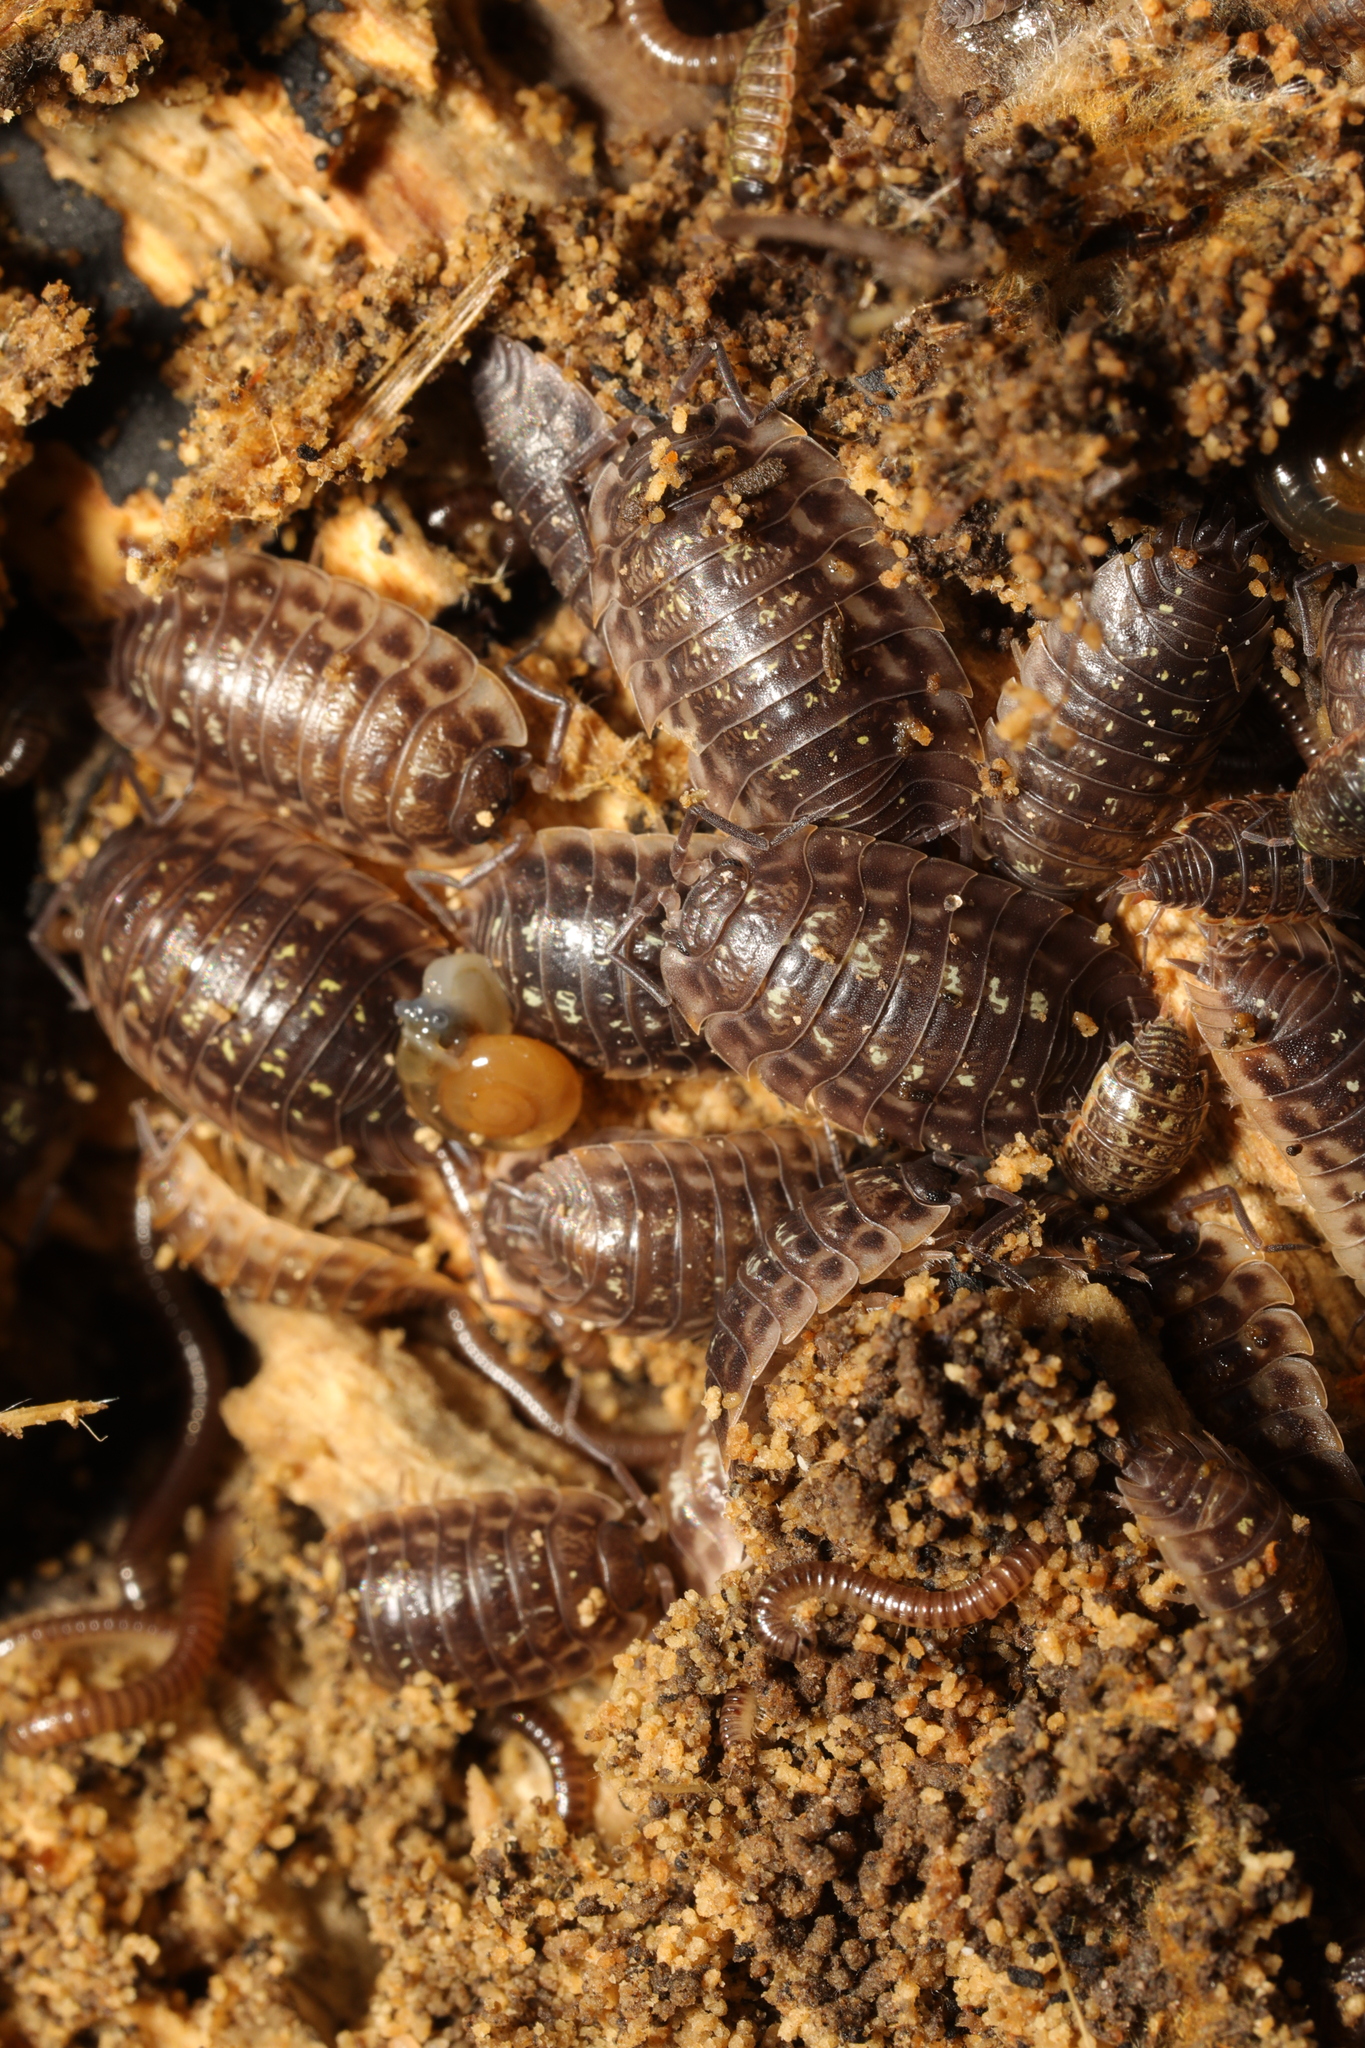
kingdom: Animalia
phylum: Arthropoda
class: Malacostraca
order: Isopoda
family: Oniscidae
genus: Oniscus
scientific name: Oniscus asellus
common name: Common shiny woodlouse
